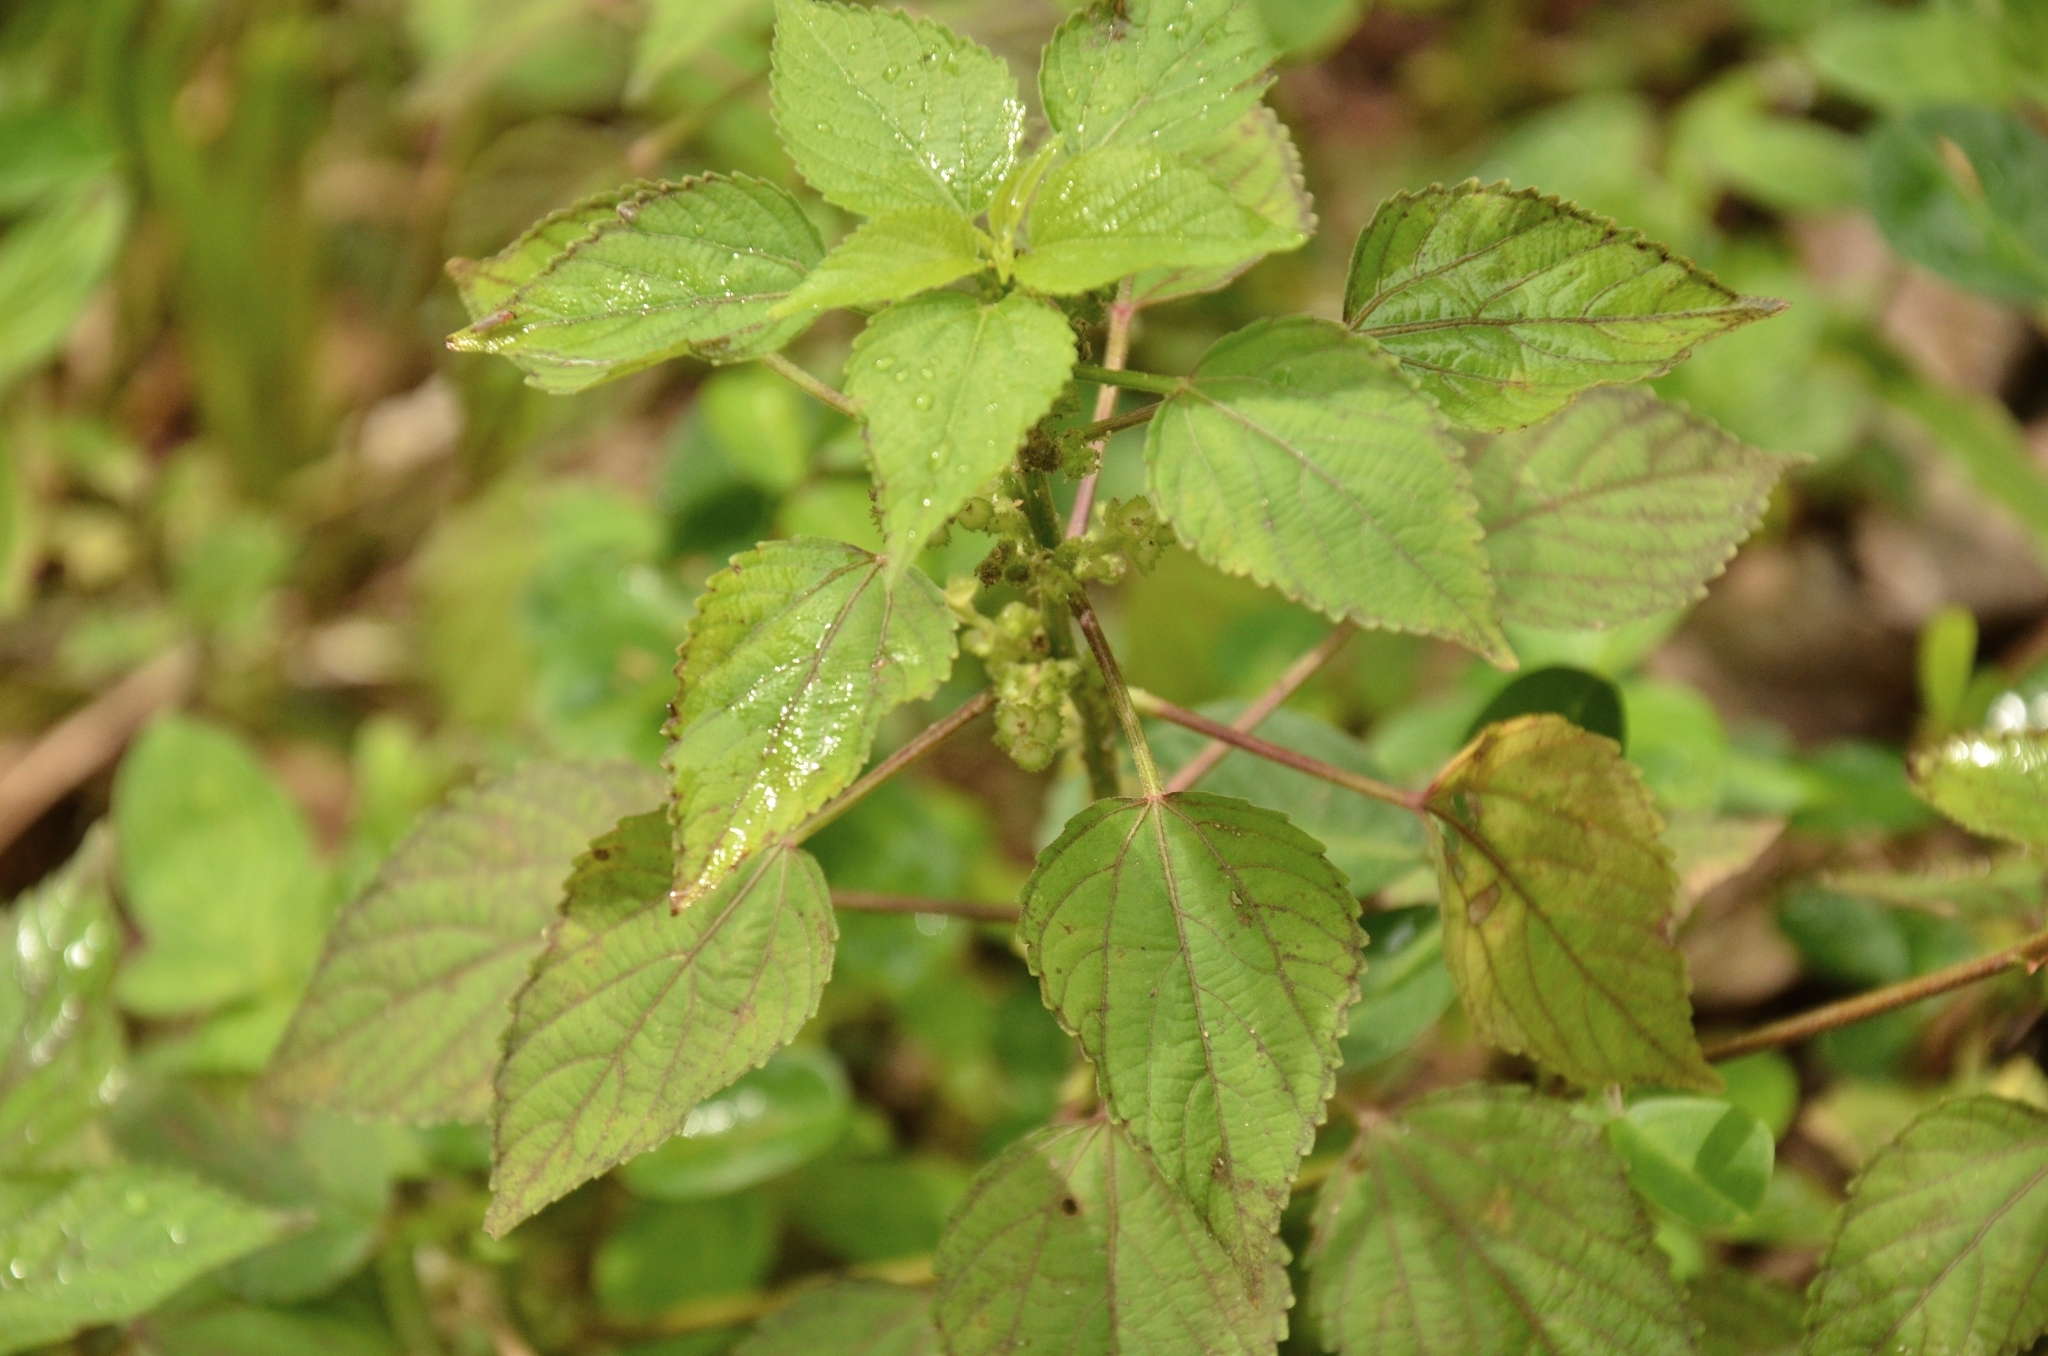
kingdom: Plantae
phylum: Tracheophyta
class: Magnoliopsida
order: Malpighiales
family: Euphorbiaceae
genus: Acalypha
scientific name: Acalypha indica
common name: Indian acalypha
